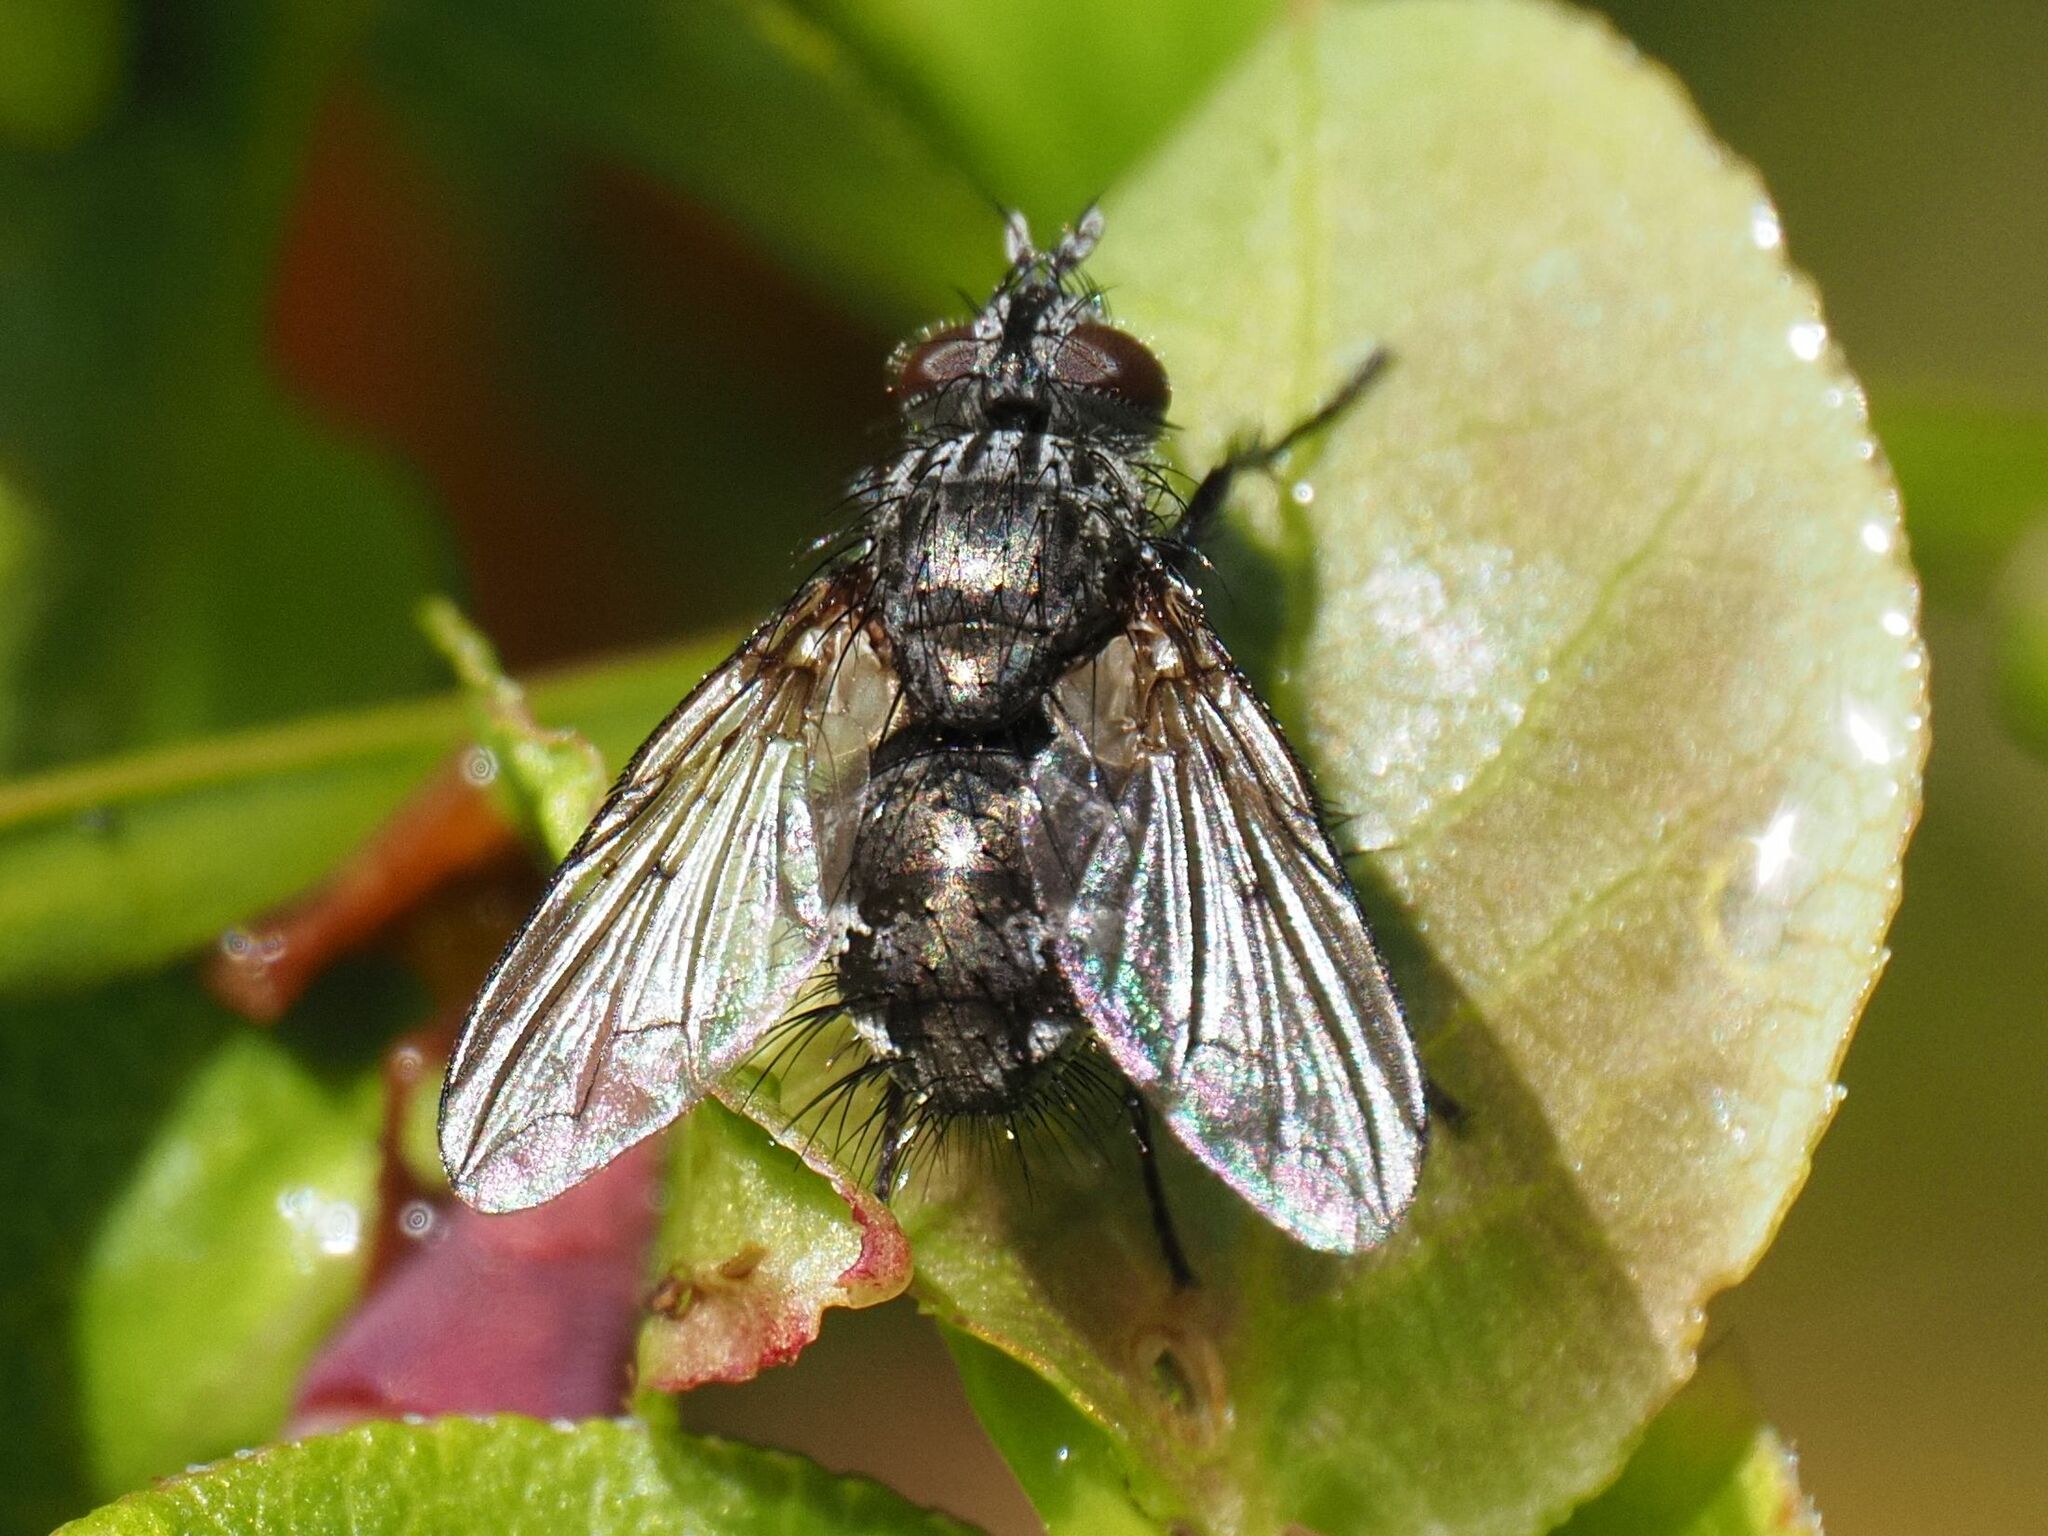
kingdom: Animalia
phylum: Arthropoda
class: Insecta
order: Diptera
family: Tachinidae
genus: Lypha
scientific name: Lypha dubia
